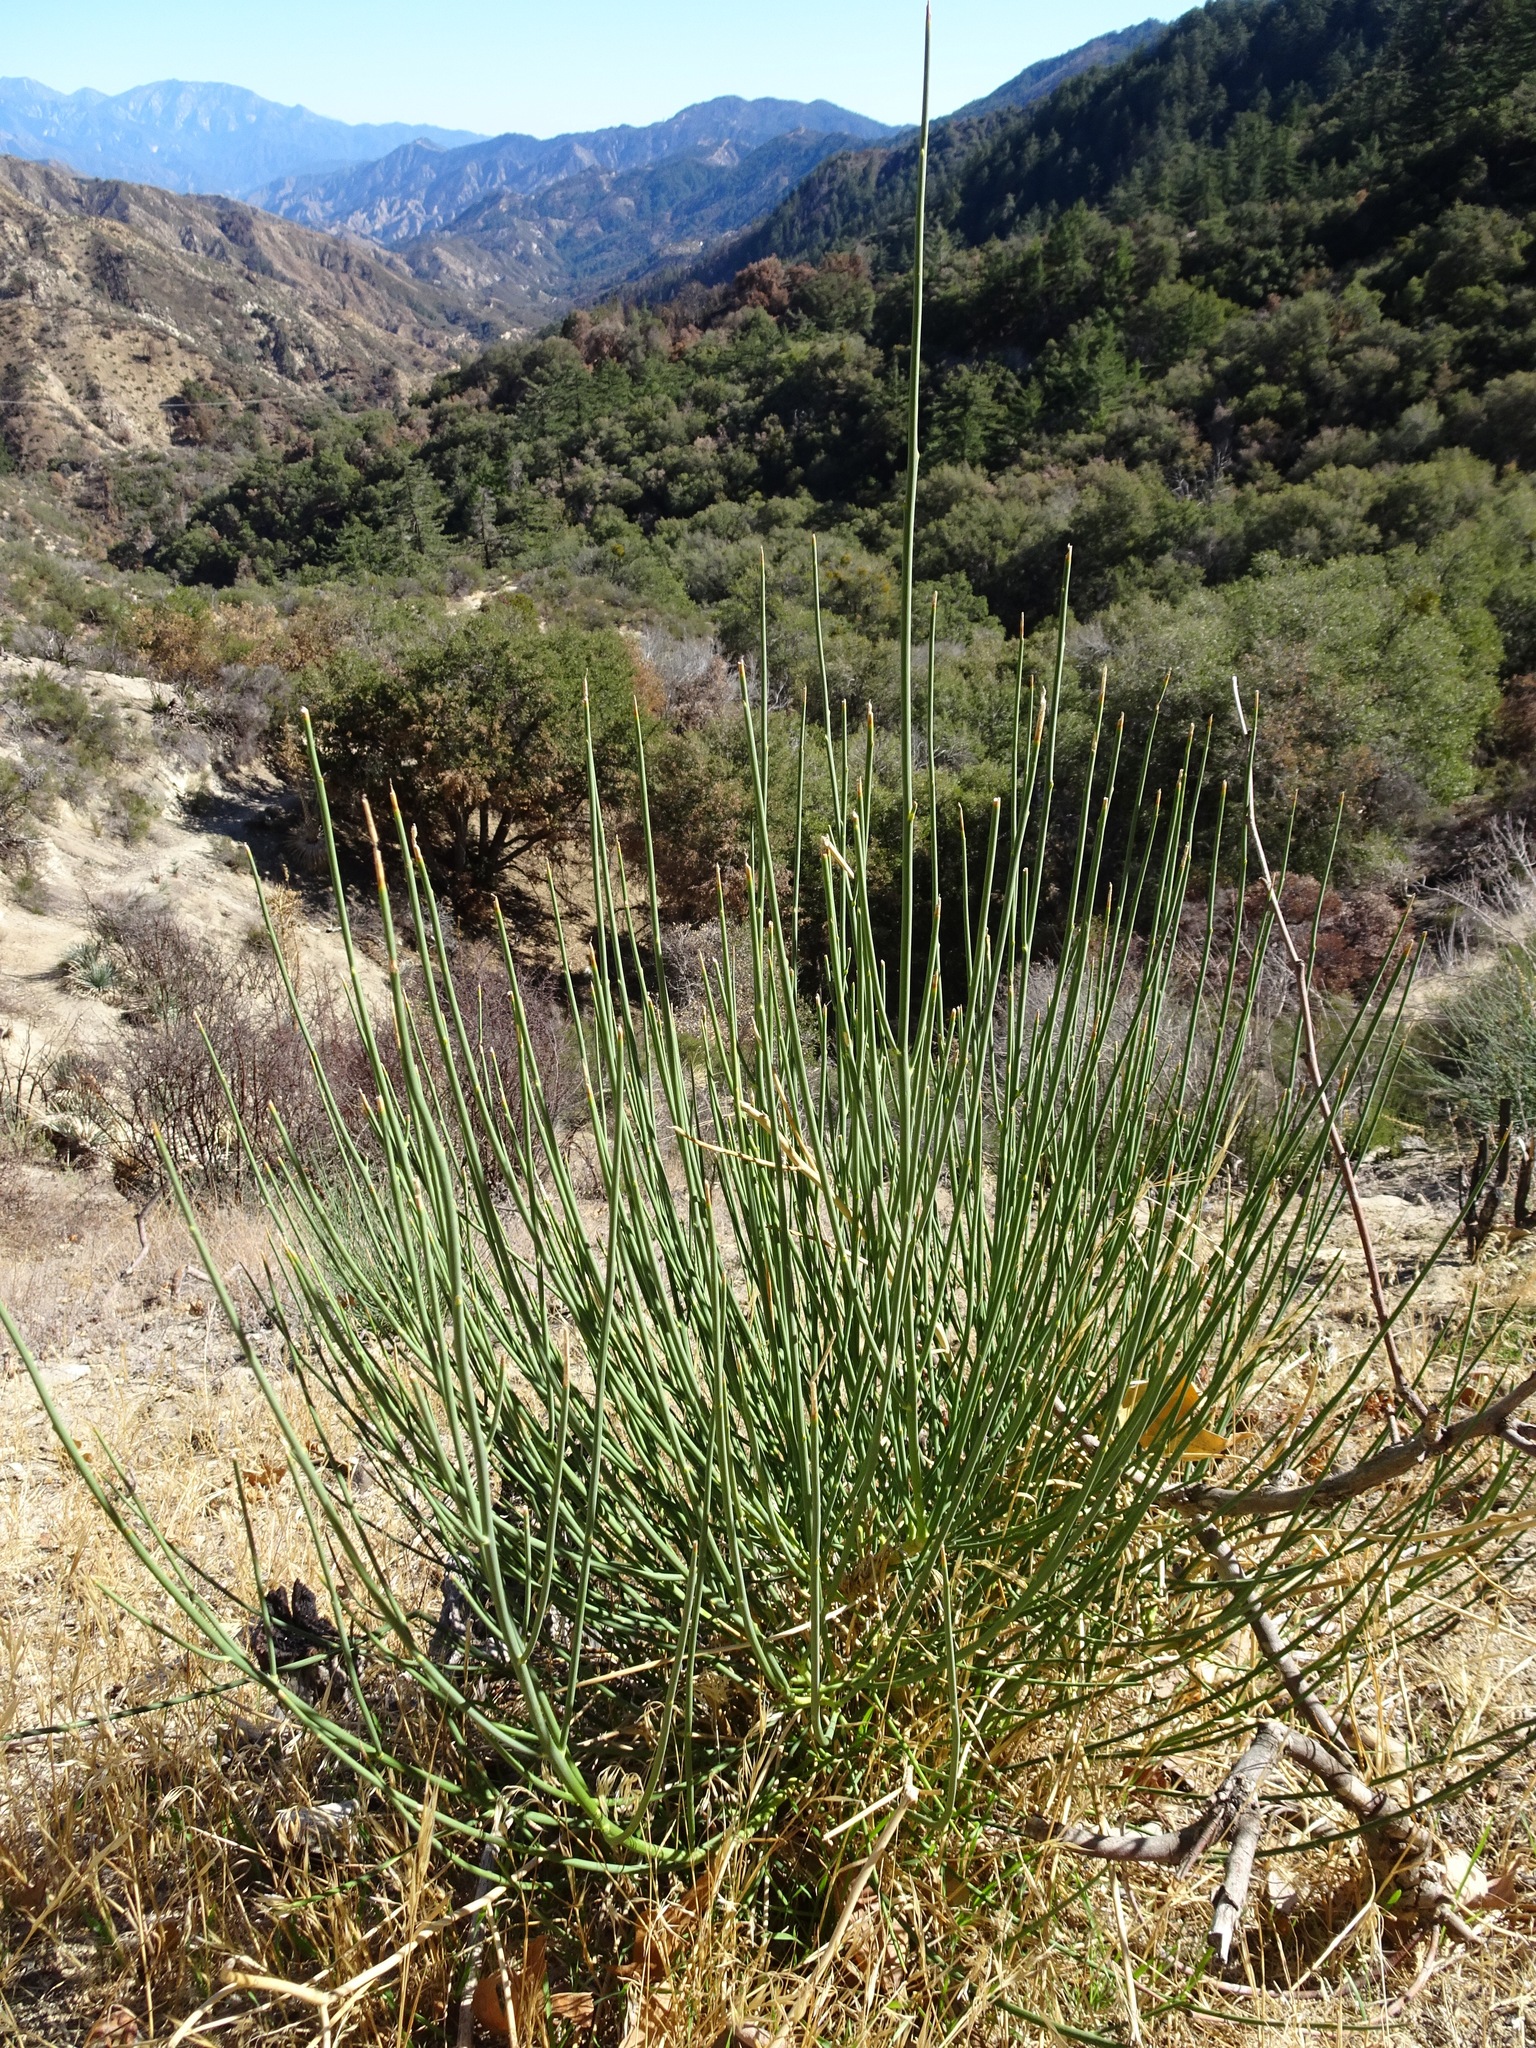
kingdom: Plantae
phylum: Tracheophyta
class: Magnoliopsida
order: Fabales
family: Fabaceae
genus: Spartium
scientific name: Spartium junceum
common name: Spanish broom
